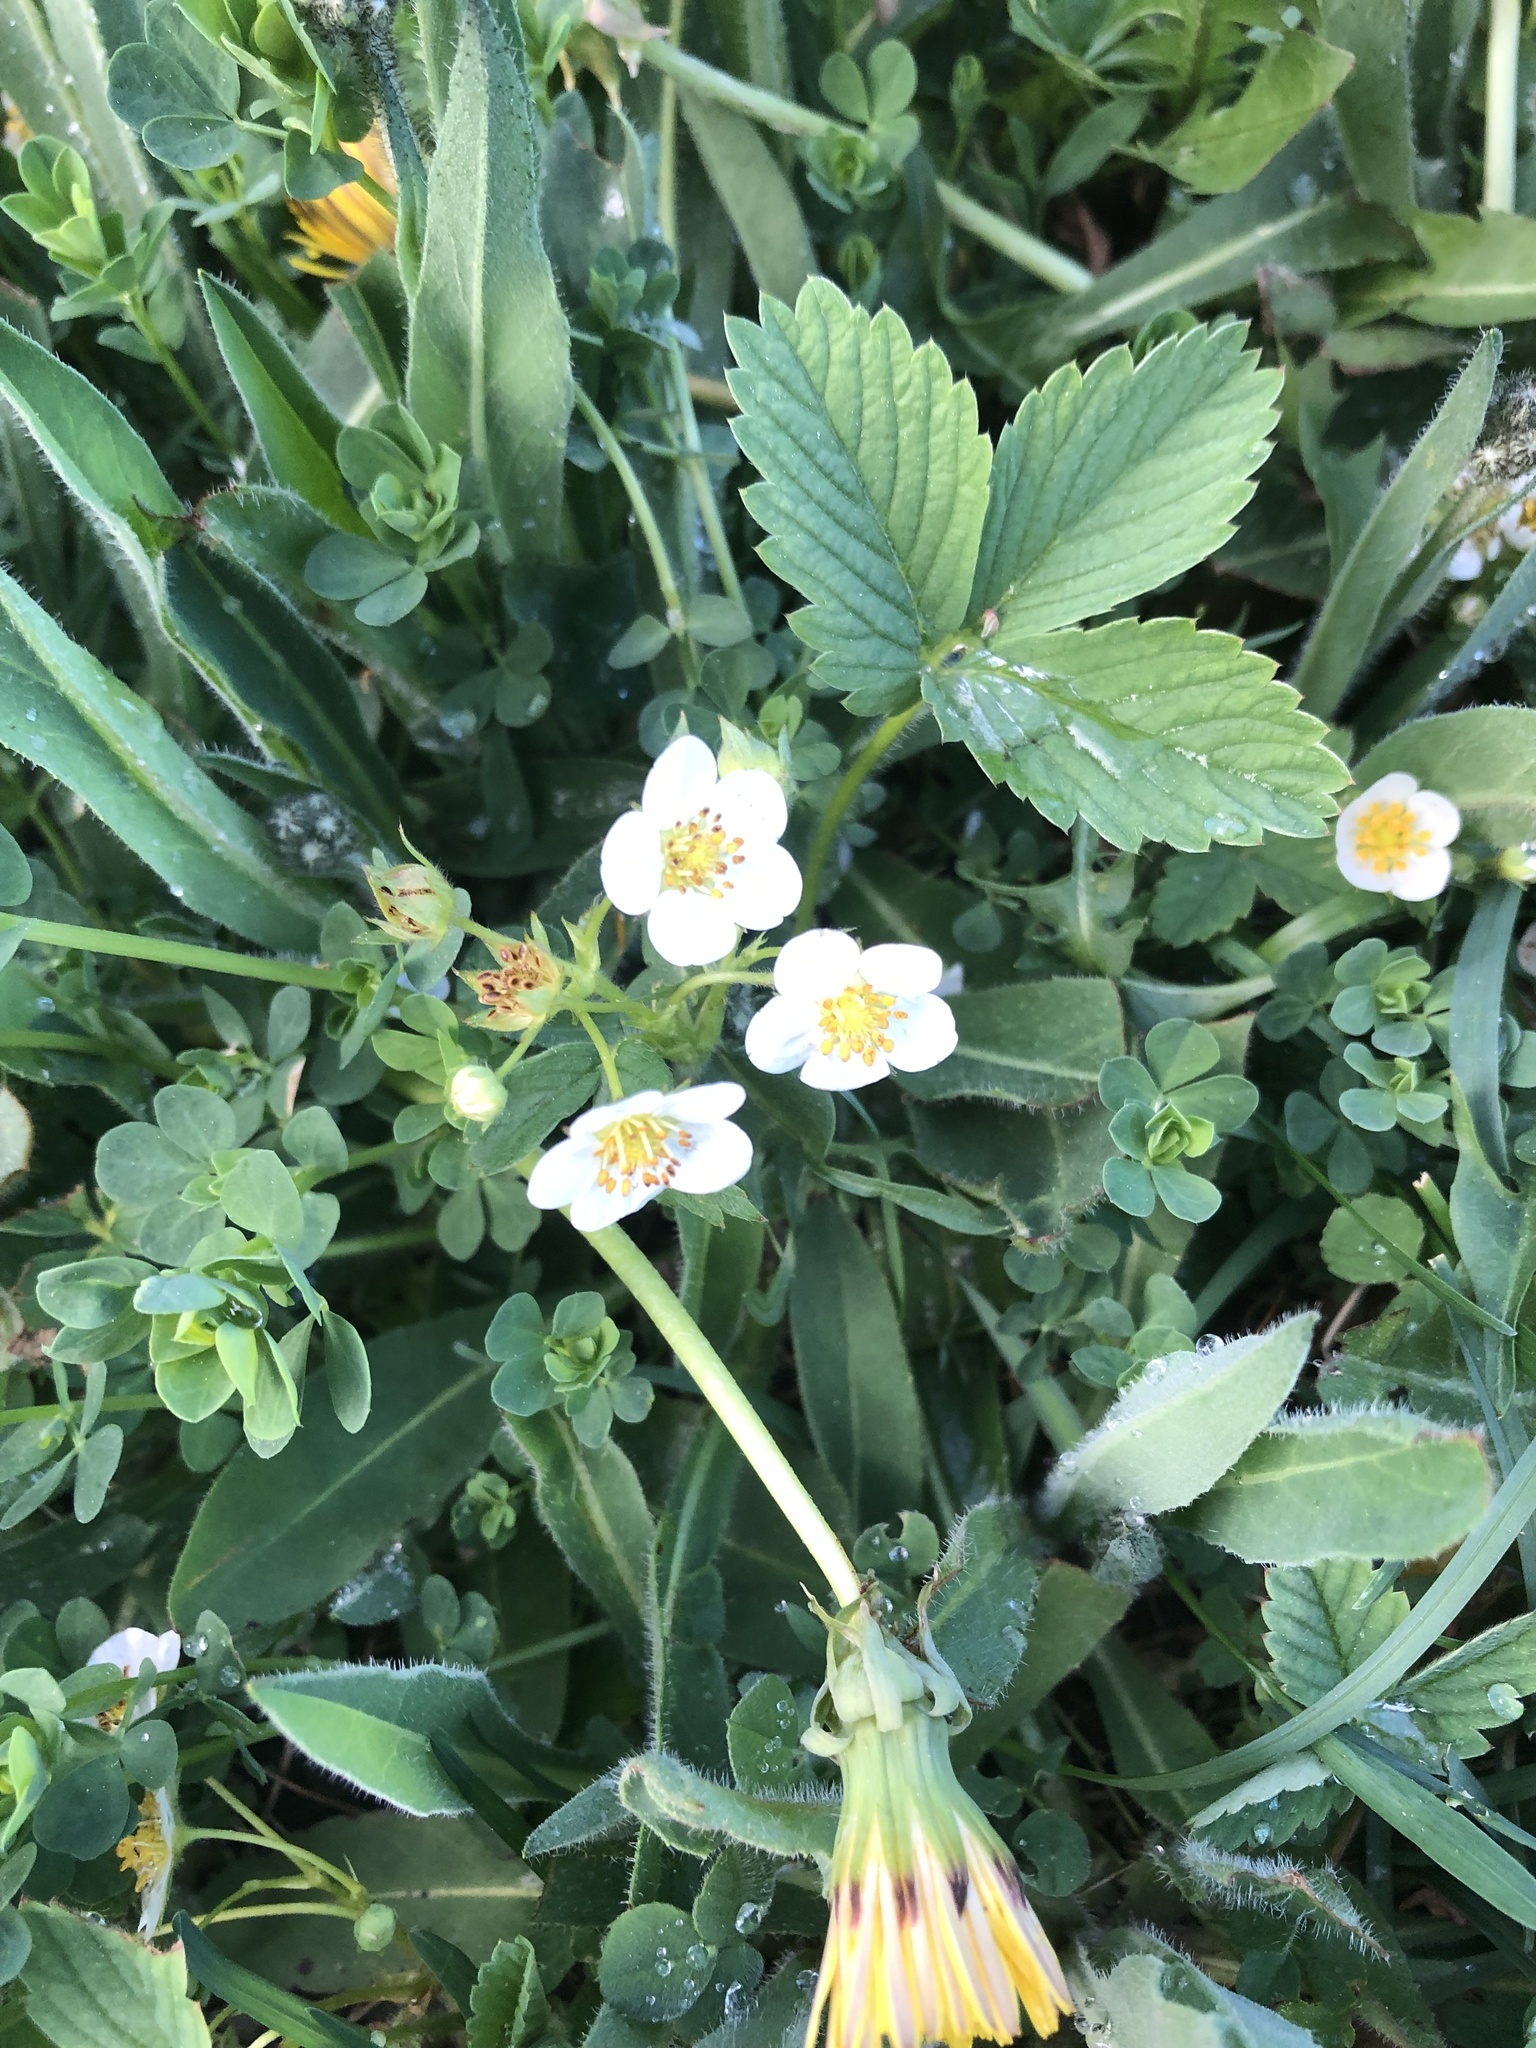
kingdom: Plantae
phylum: Tracheophyta
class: Magnoliopsida
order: Rosales
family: Rosaceae
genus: Fragaria
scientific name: Fragaria virginiana
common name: Thickleaved wild strawberry
